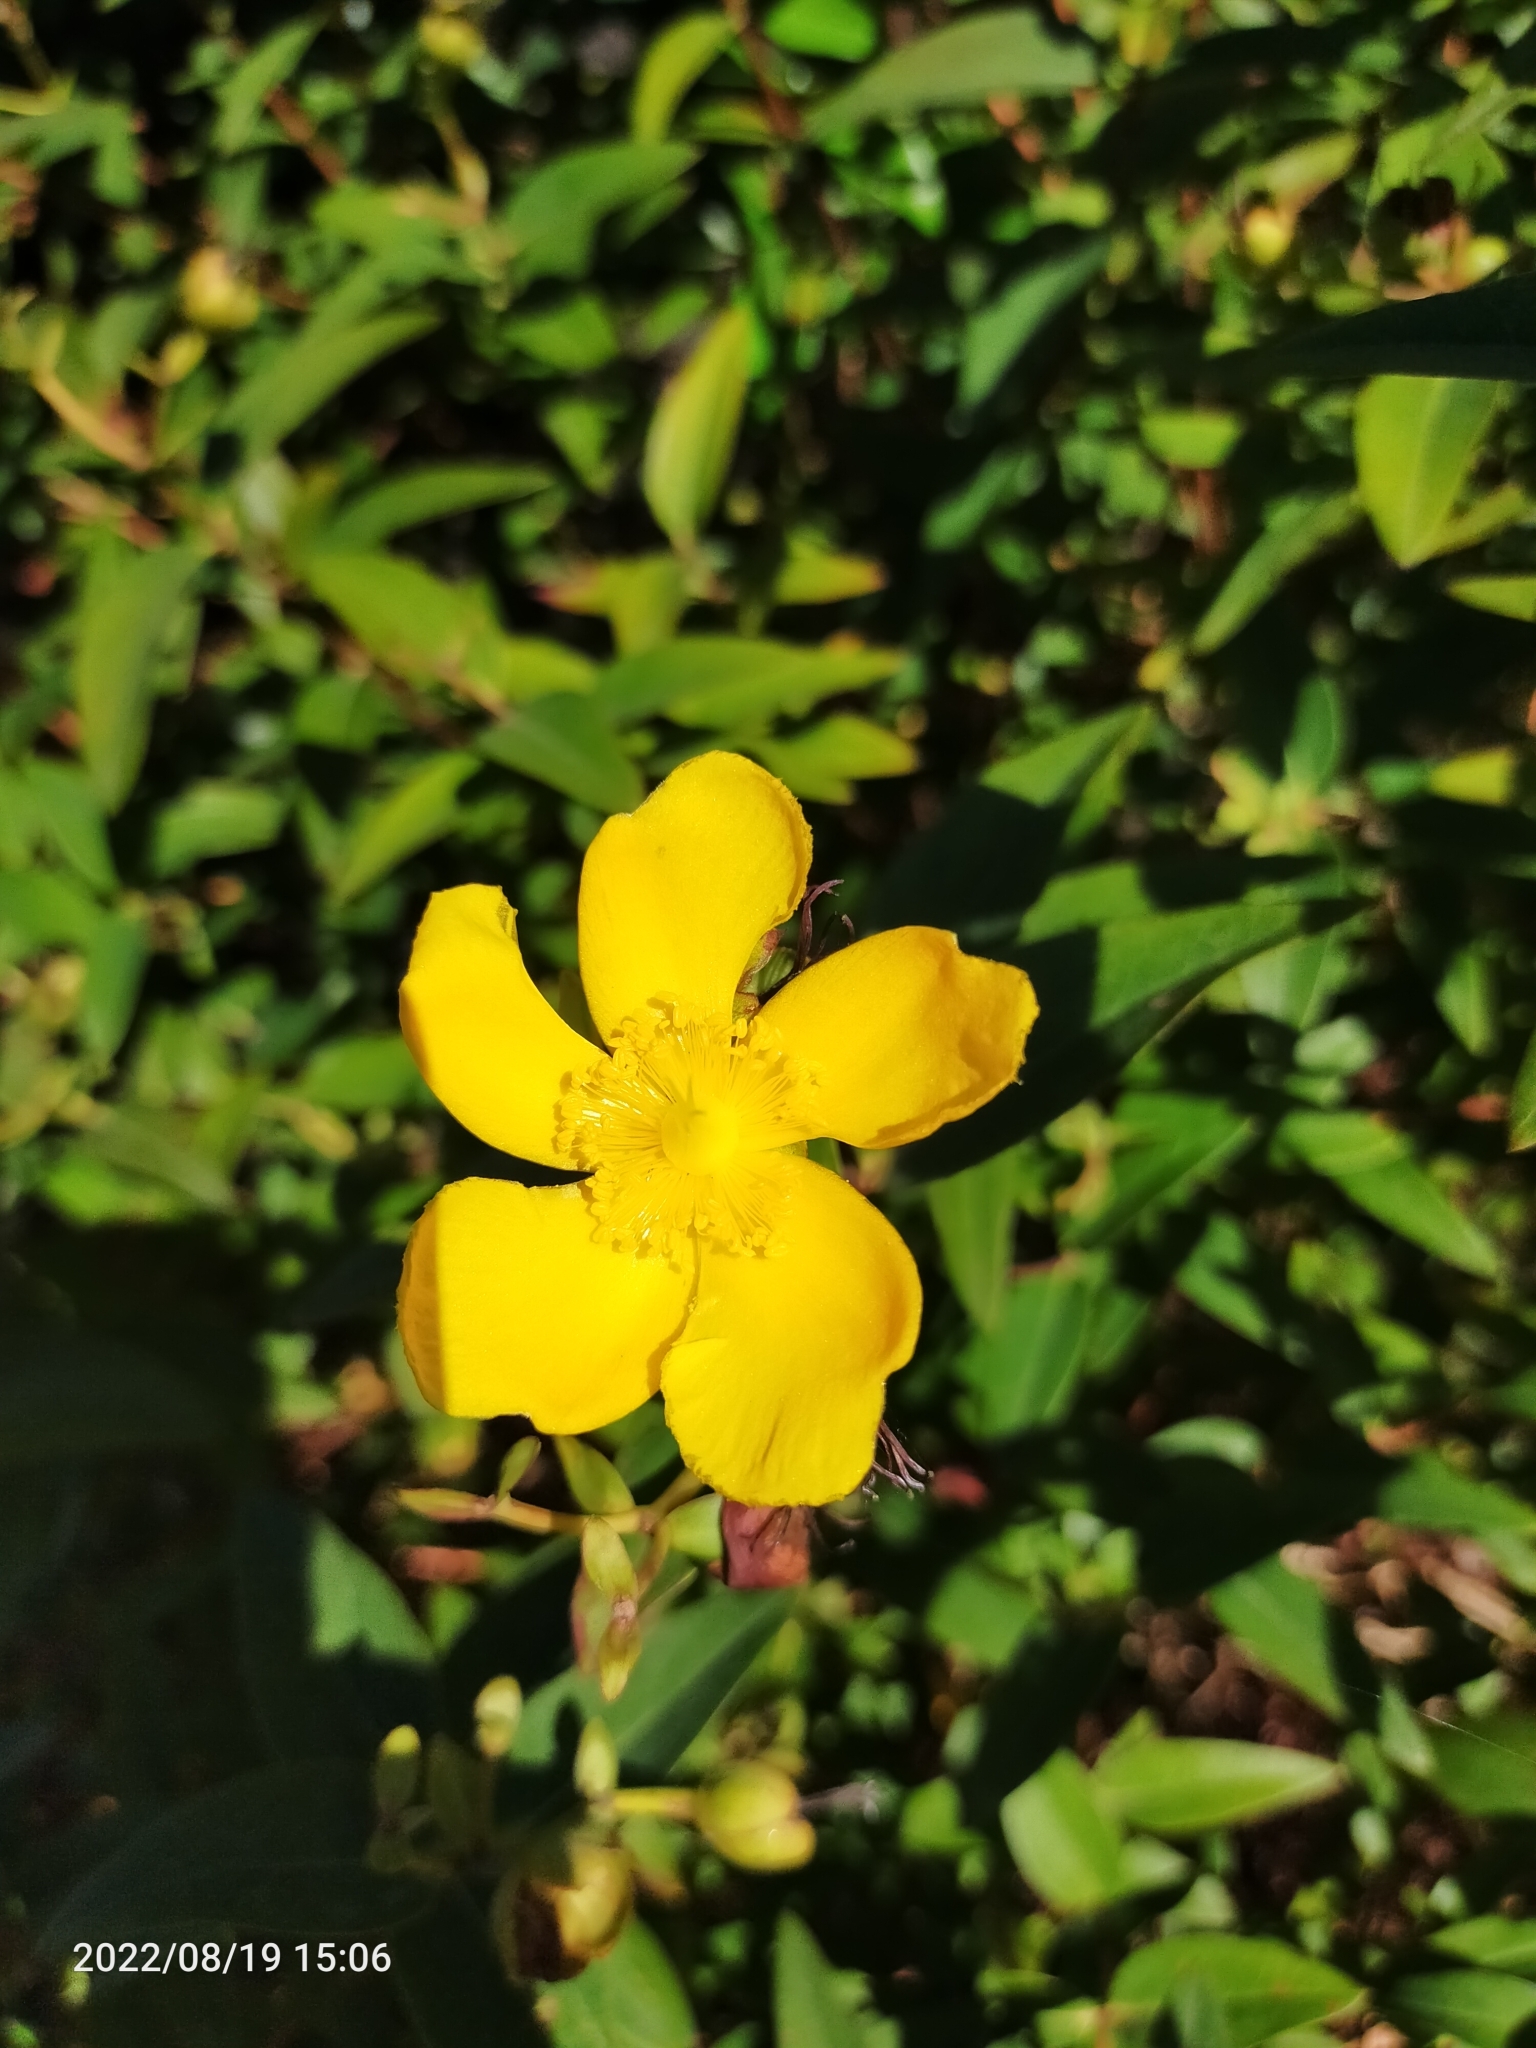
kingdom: Plantae
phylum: Tracheophyta
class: Magnoliopsida
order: Malpighiales
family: Hypericaceae
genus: Hypericum
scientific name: Hypericum
